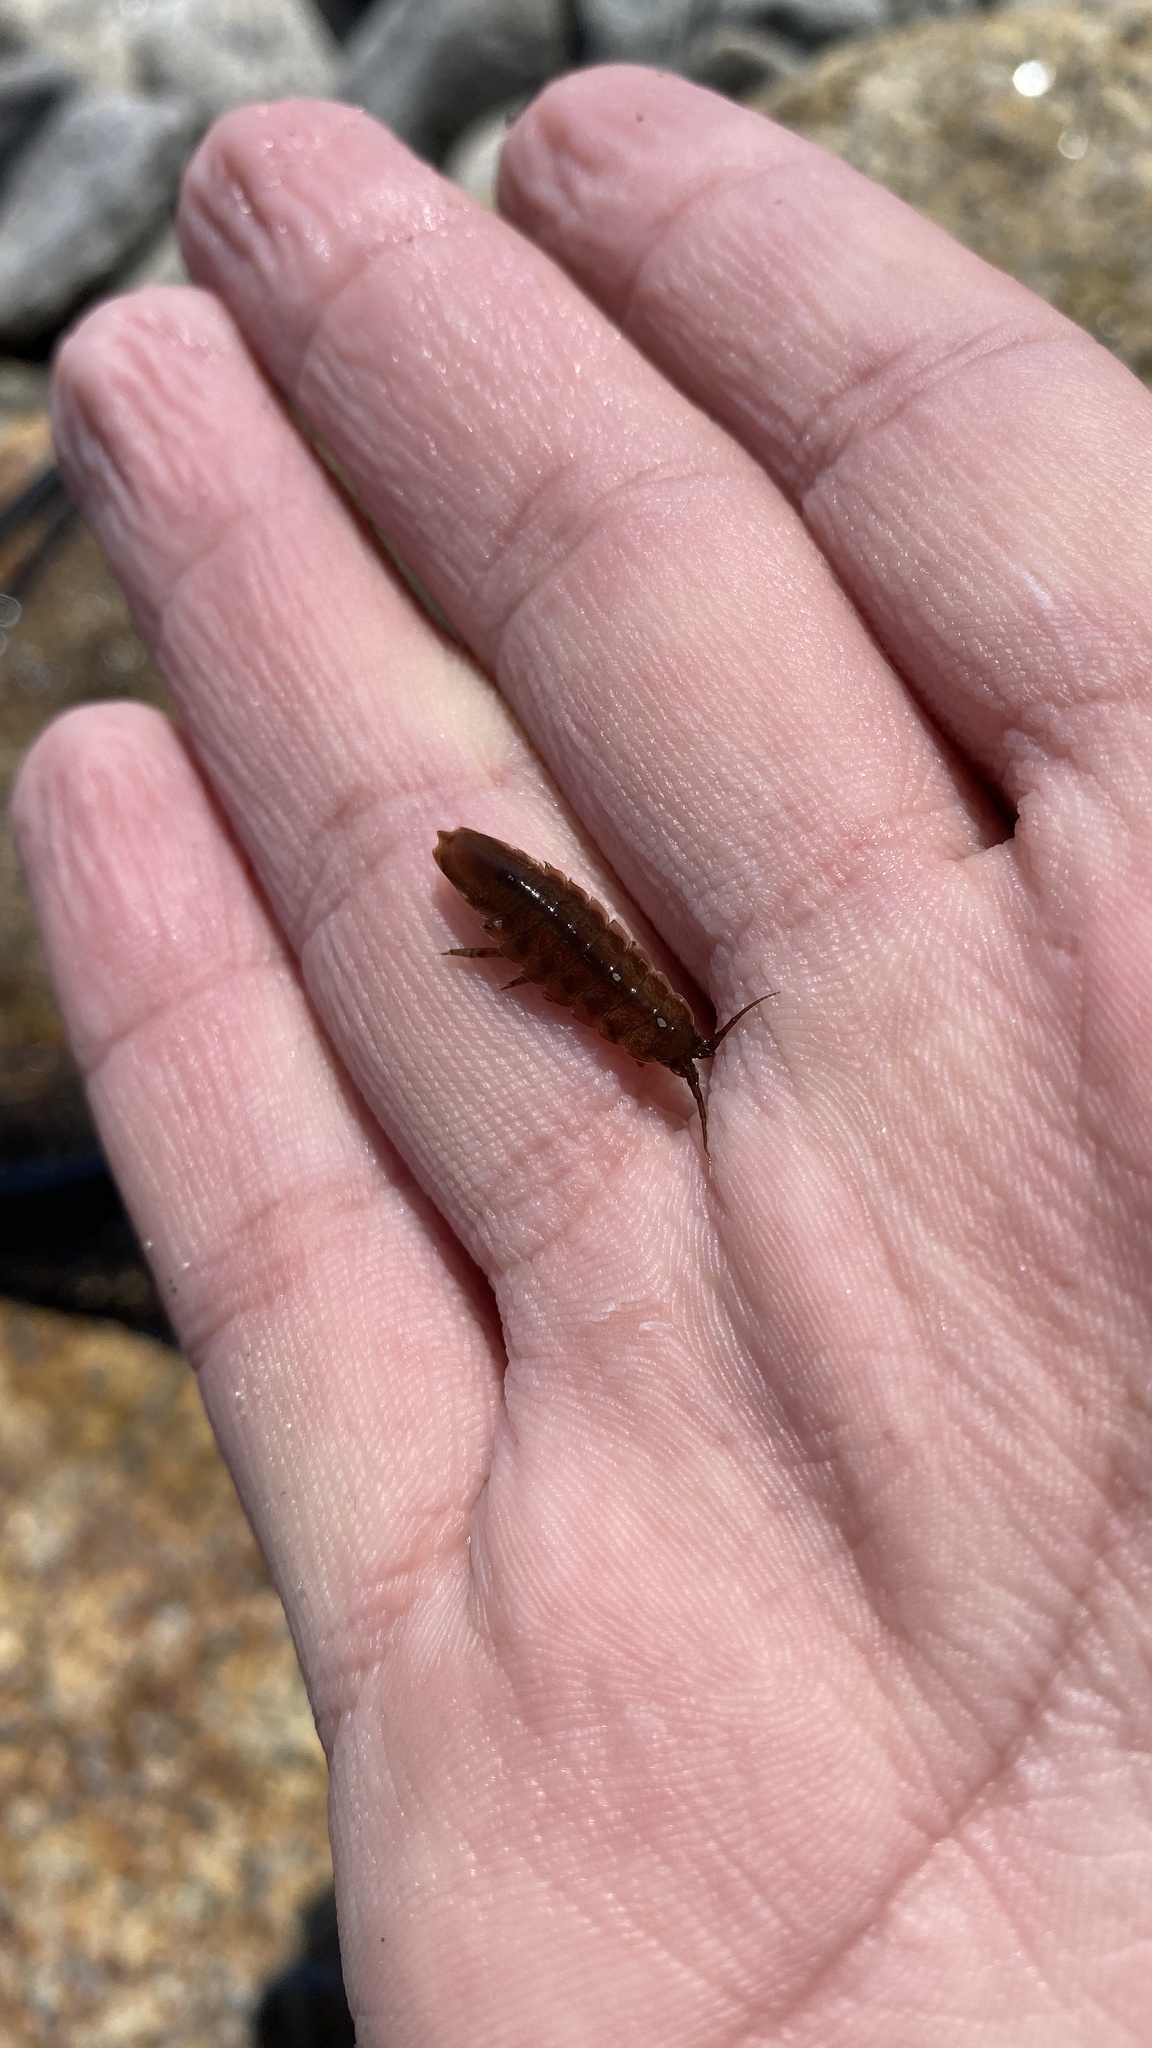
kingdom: Animalia
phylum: Arthropoda
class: Malacostraca
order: Isopoda
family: Idoteidae
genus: Idotea
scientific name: Idotea balthica
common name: Baltic isopod
